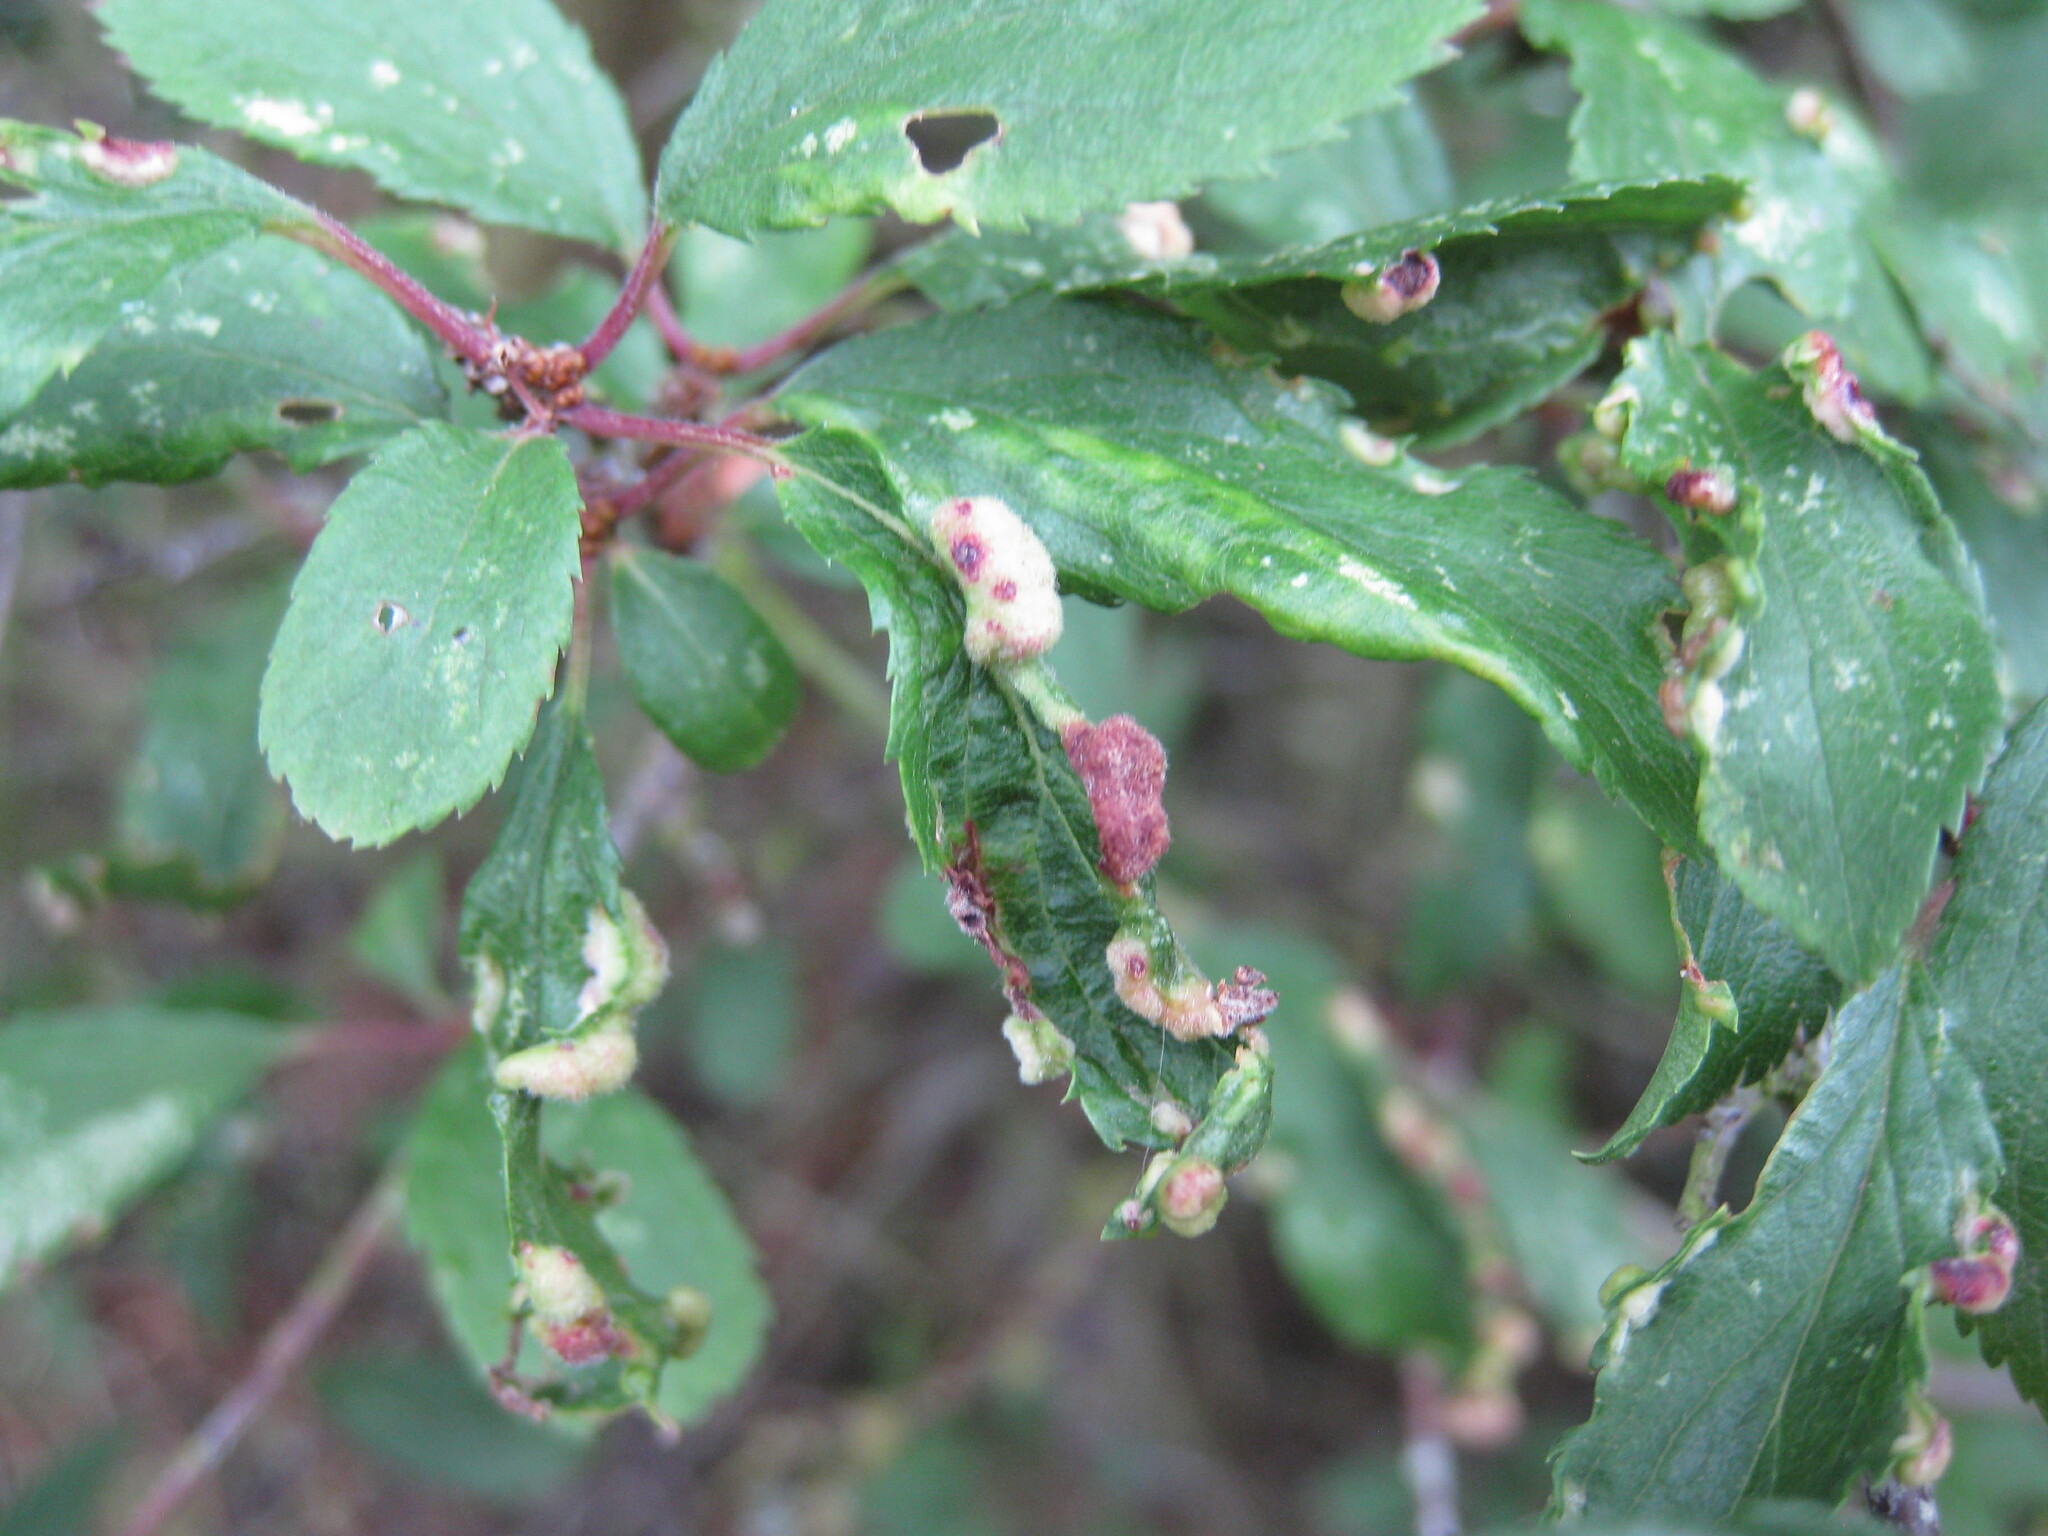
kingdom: Animalia
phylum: Arthropoda
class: Arachnida
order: Trombidiformes
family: Eriophyidae
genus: Eriophyes
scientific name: Eriophyes similis
